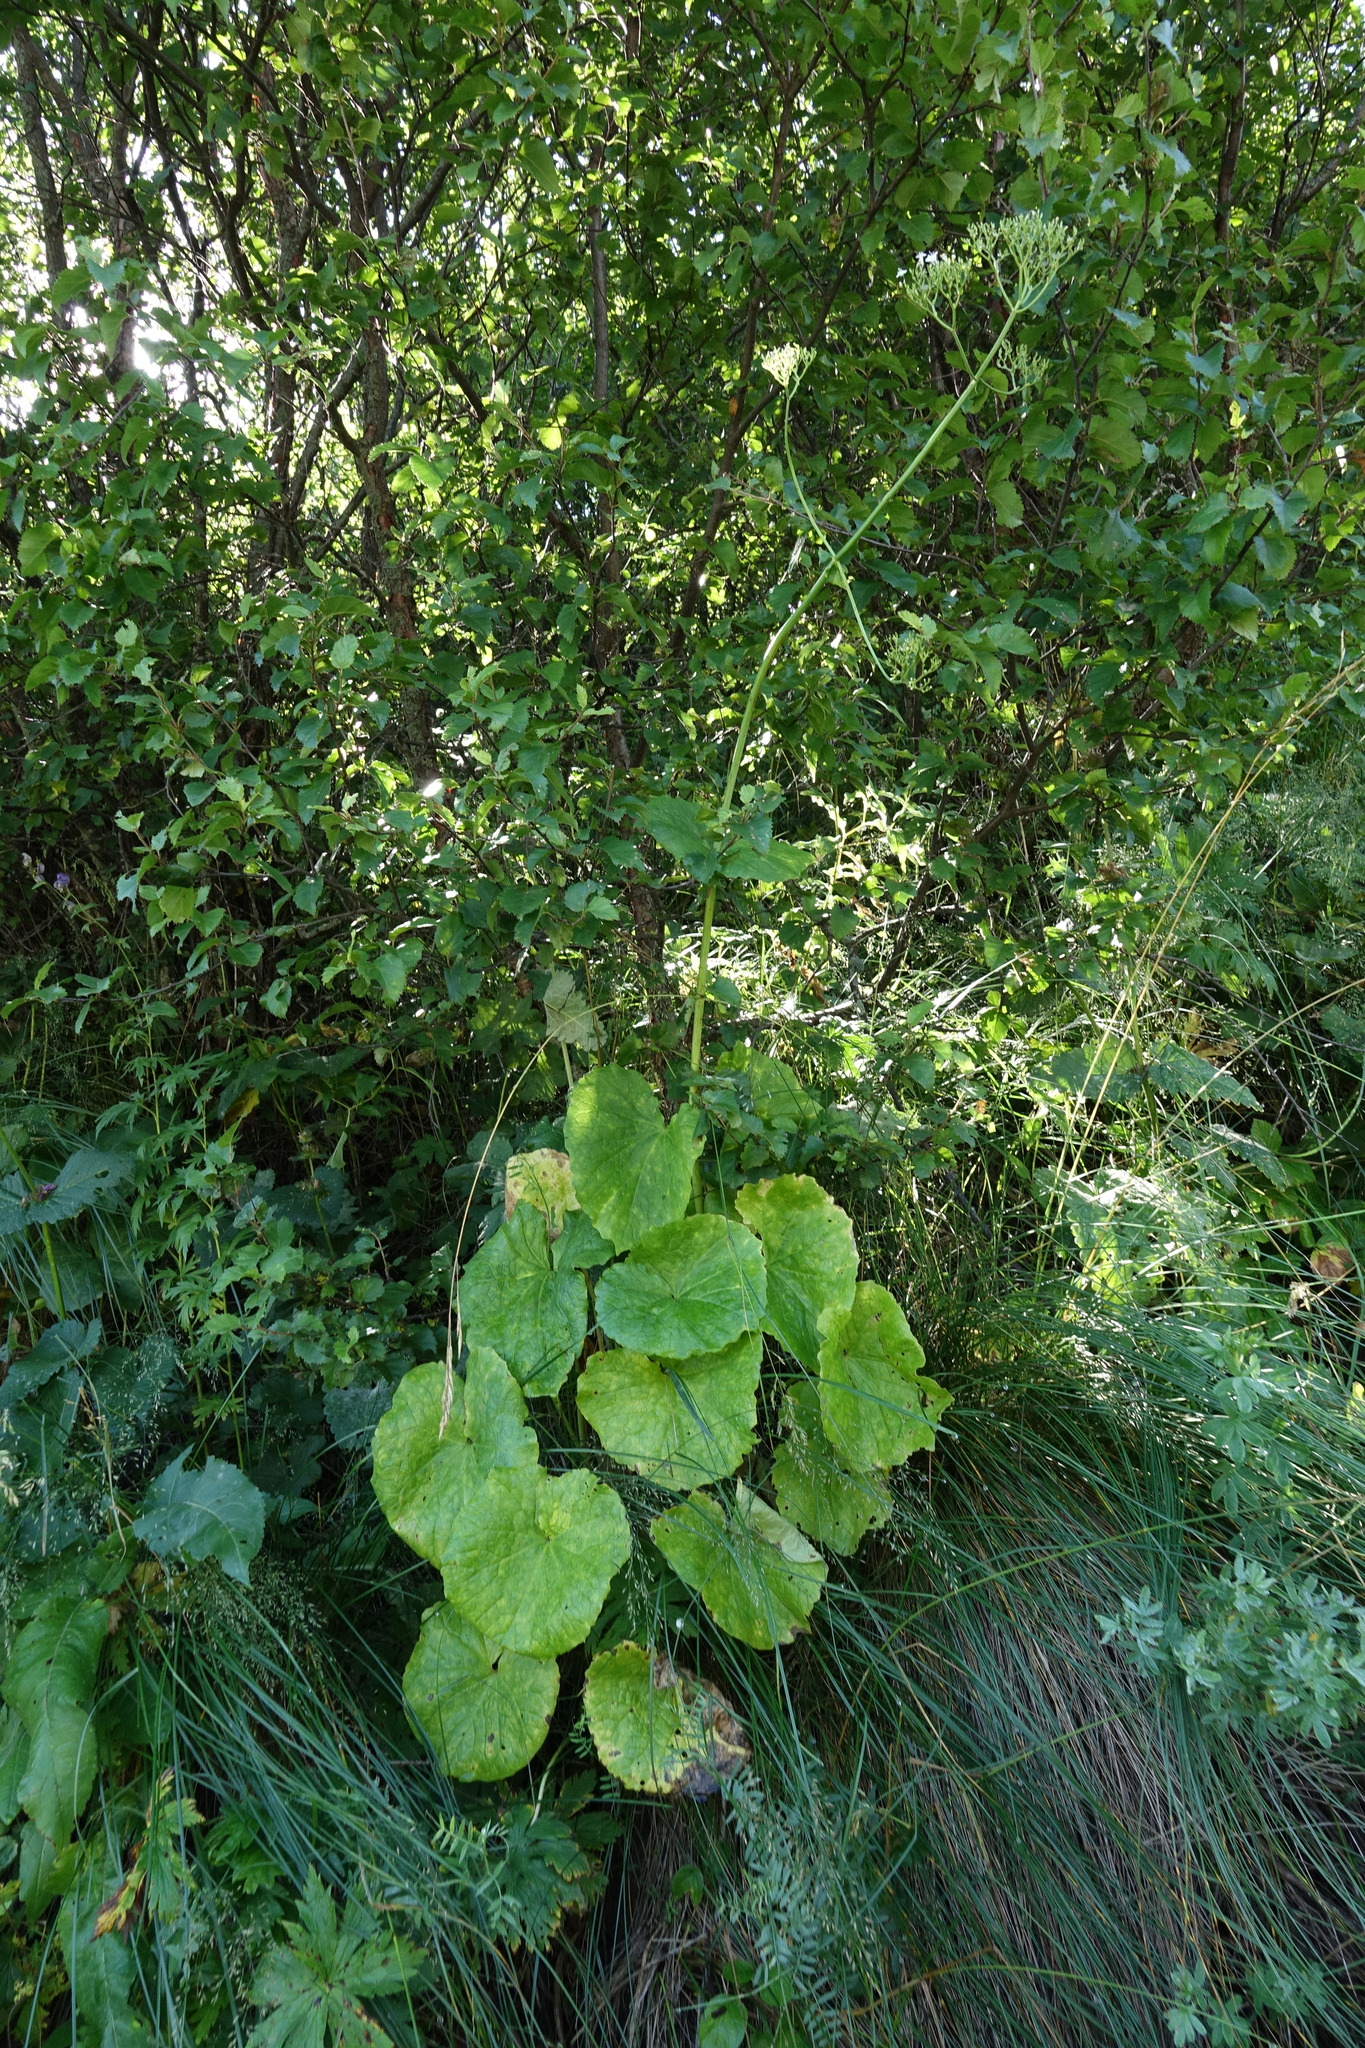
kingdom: Plantae
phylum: Tracheophyta
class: Magnoliopsida
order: Dipsacales
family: Caprifoliaceae
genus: Valeriana
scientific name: Valeriana alliariifolia
